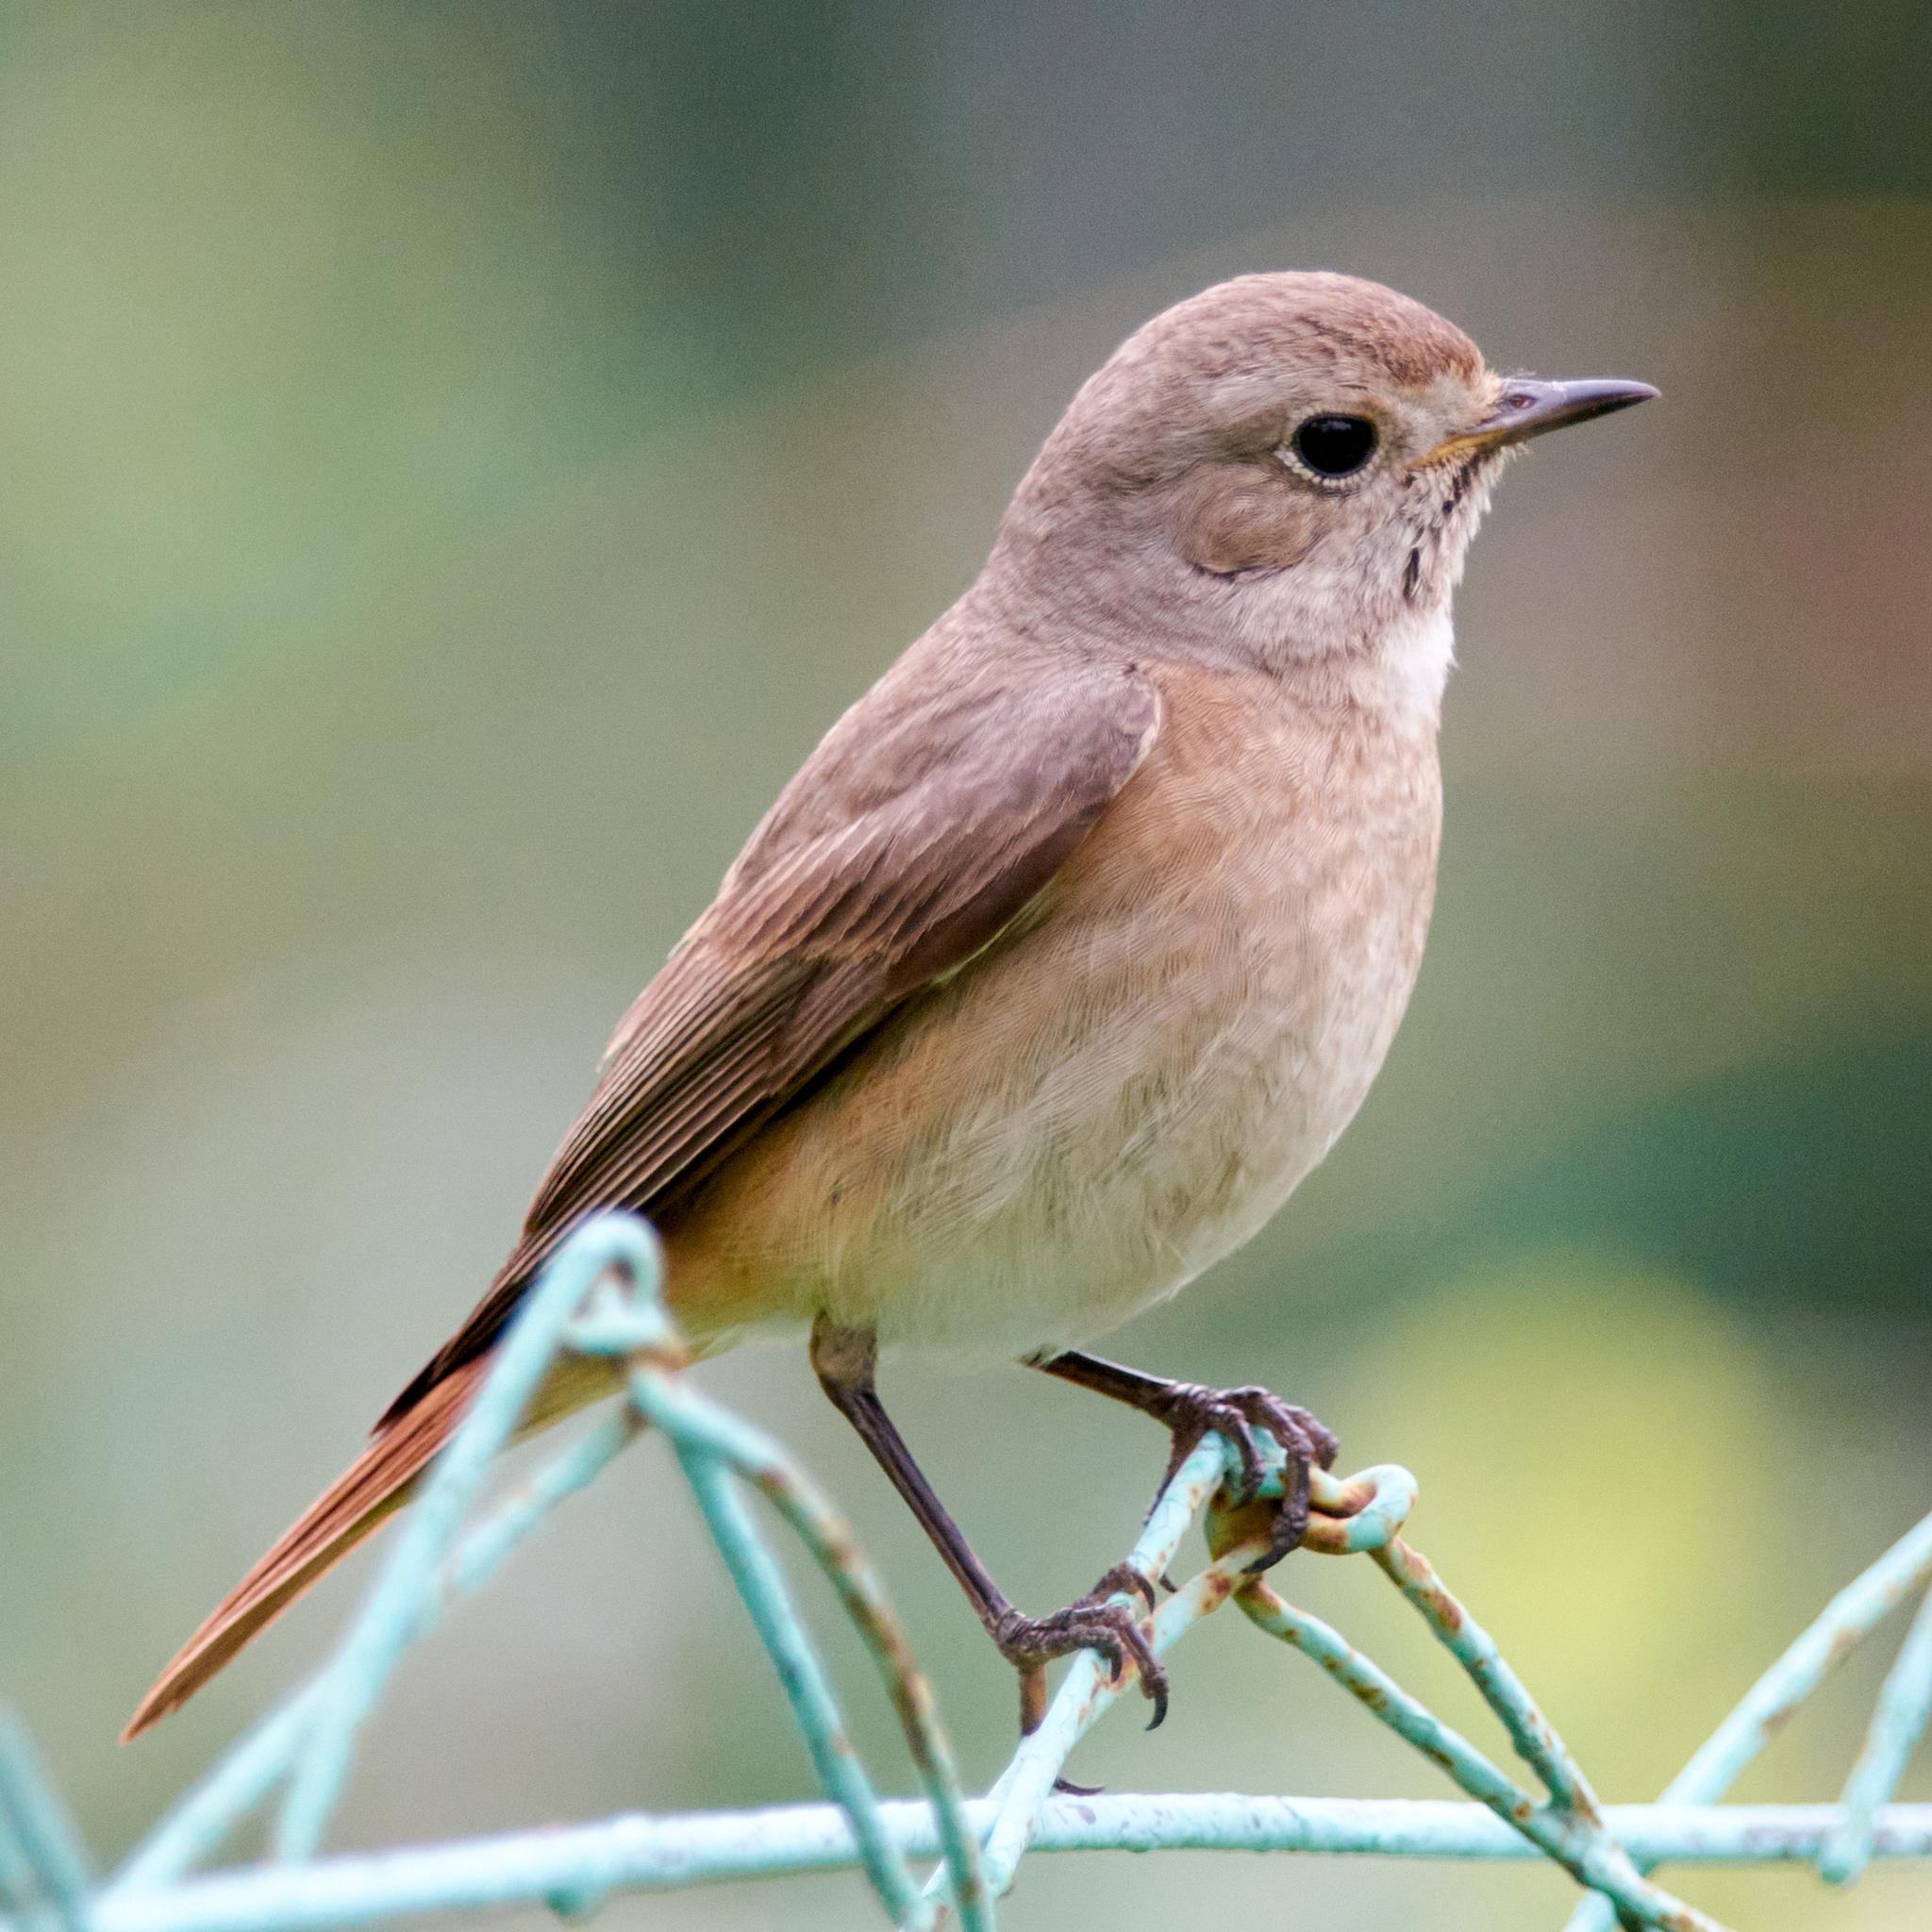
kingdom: Animalia
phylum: Chordata
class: Aves
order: Passeriformes
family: Muscicapidae
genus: Phoenicurus
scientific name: Phoenicurus phoenicurus
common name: Common redstart
